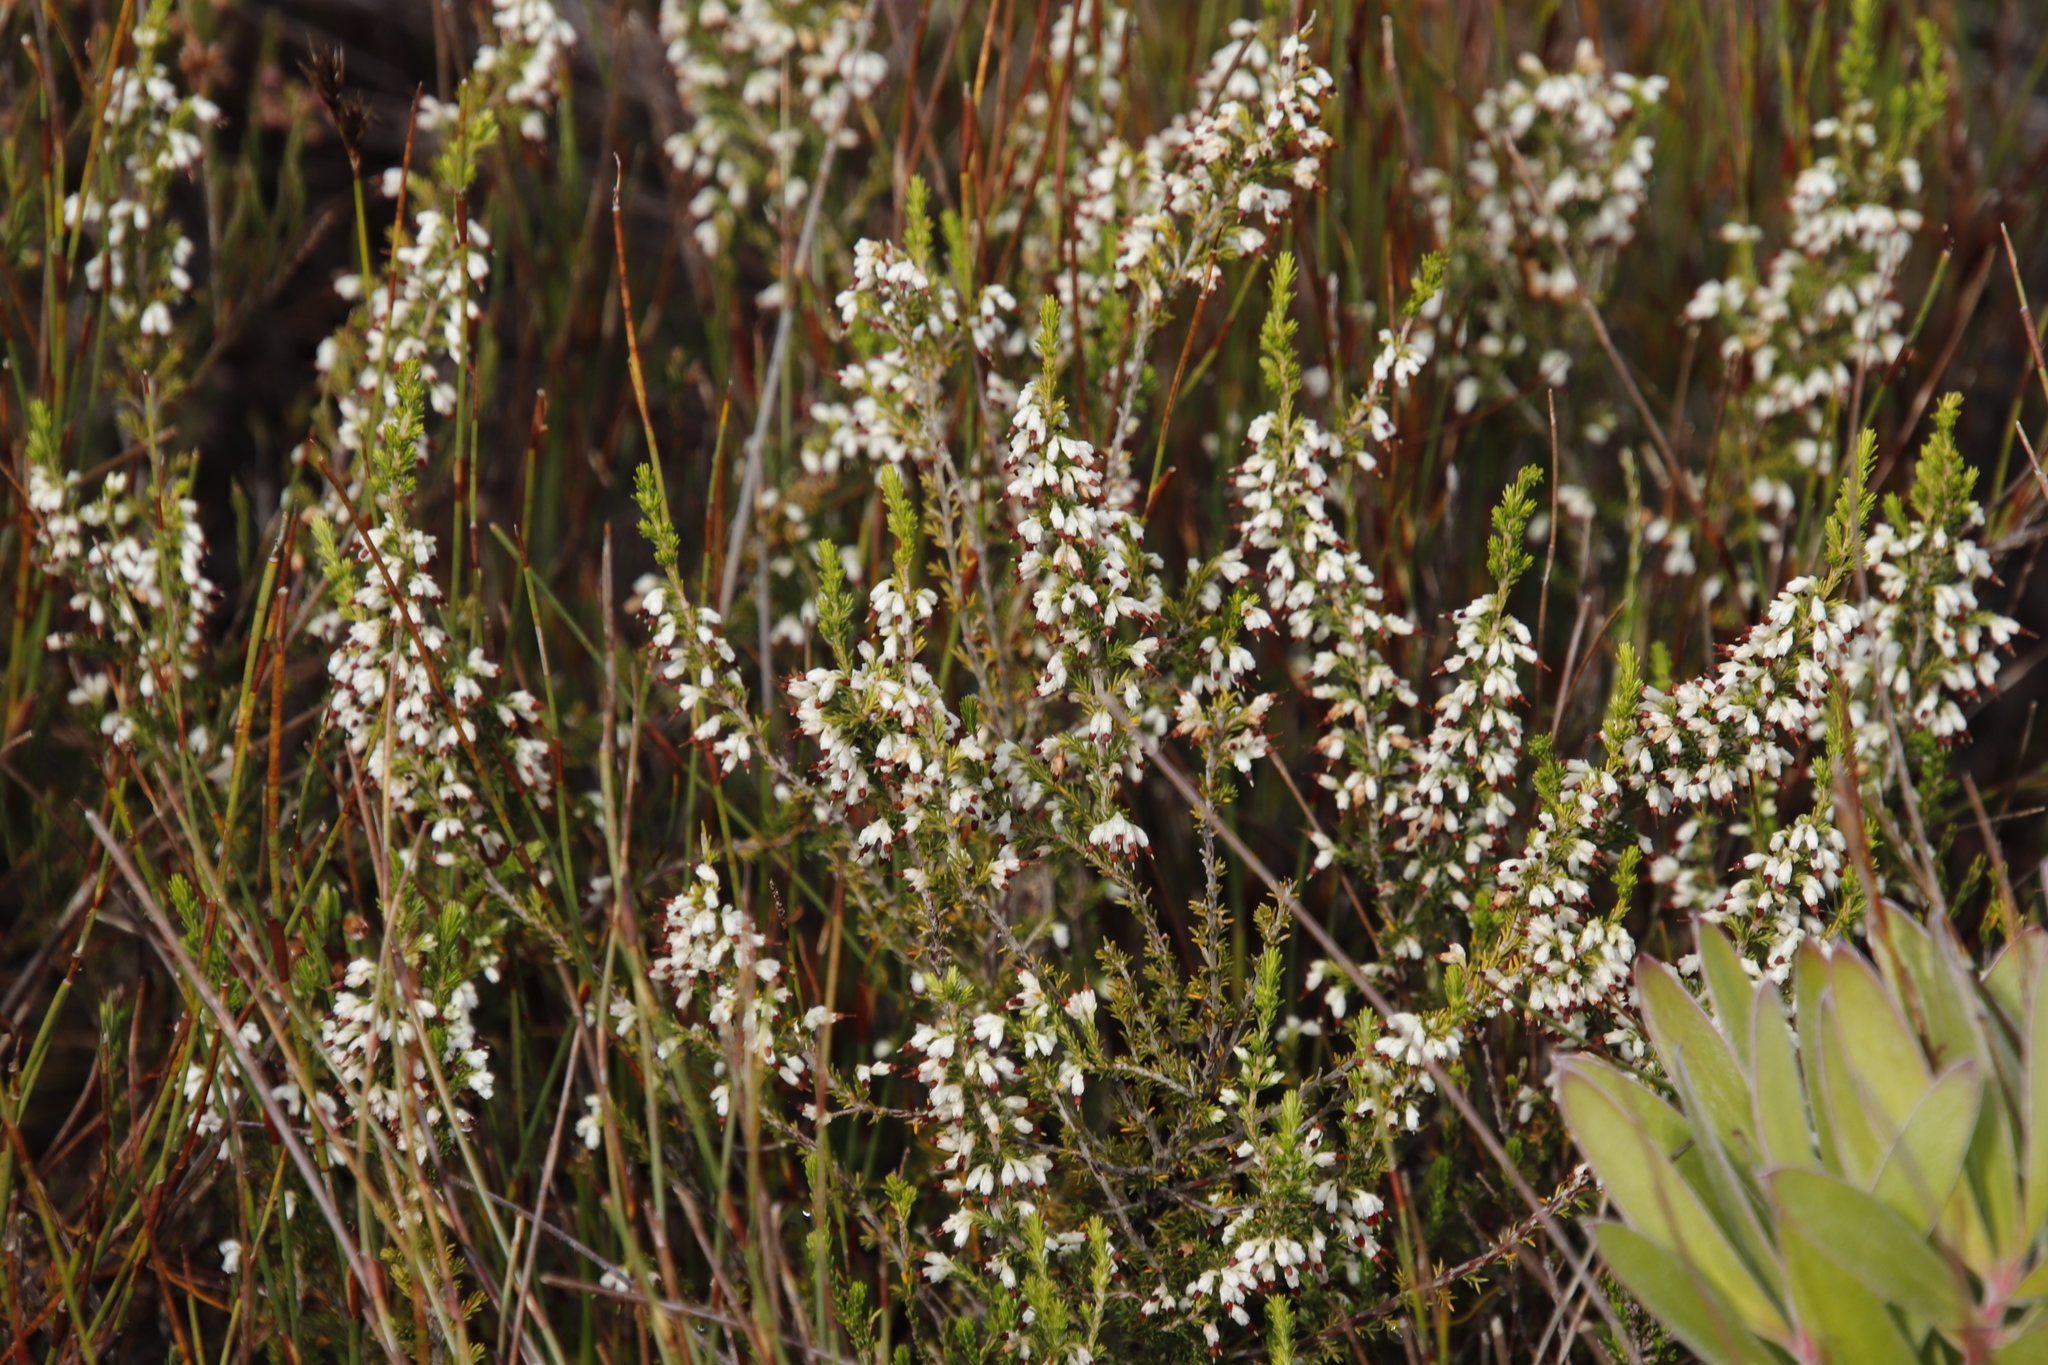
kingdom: Plantae
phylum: Tracheophyta
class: Magnoliopsida
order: Ericales
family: Ericaceae
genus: Erica
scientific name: Erica imbricata
